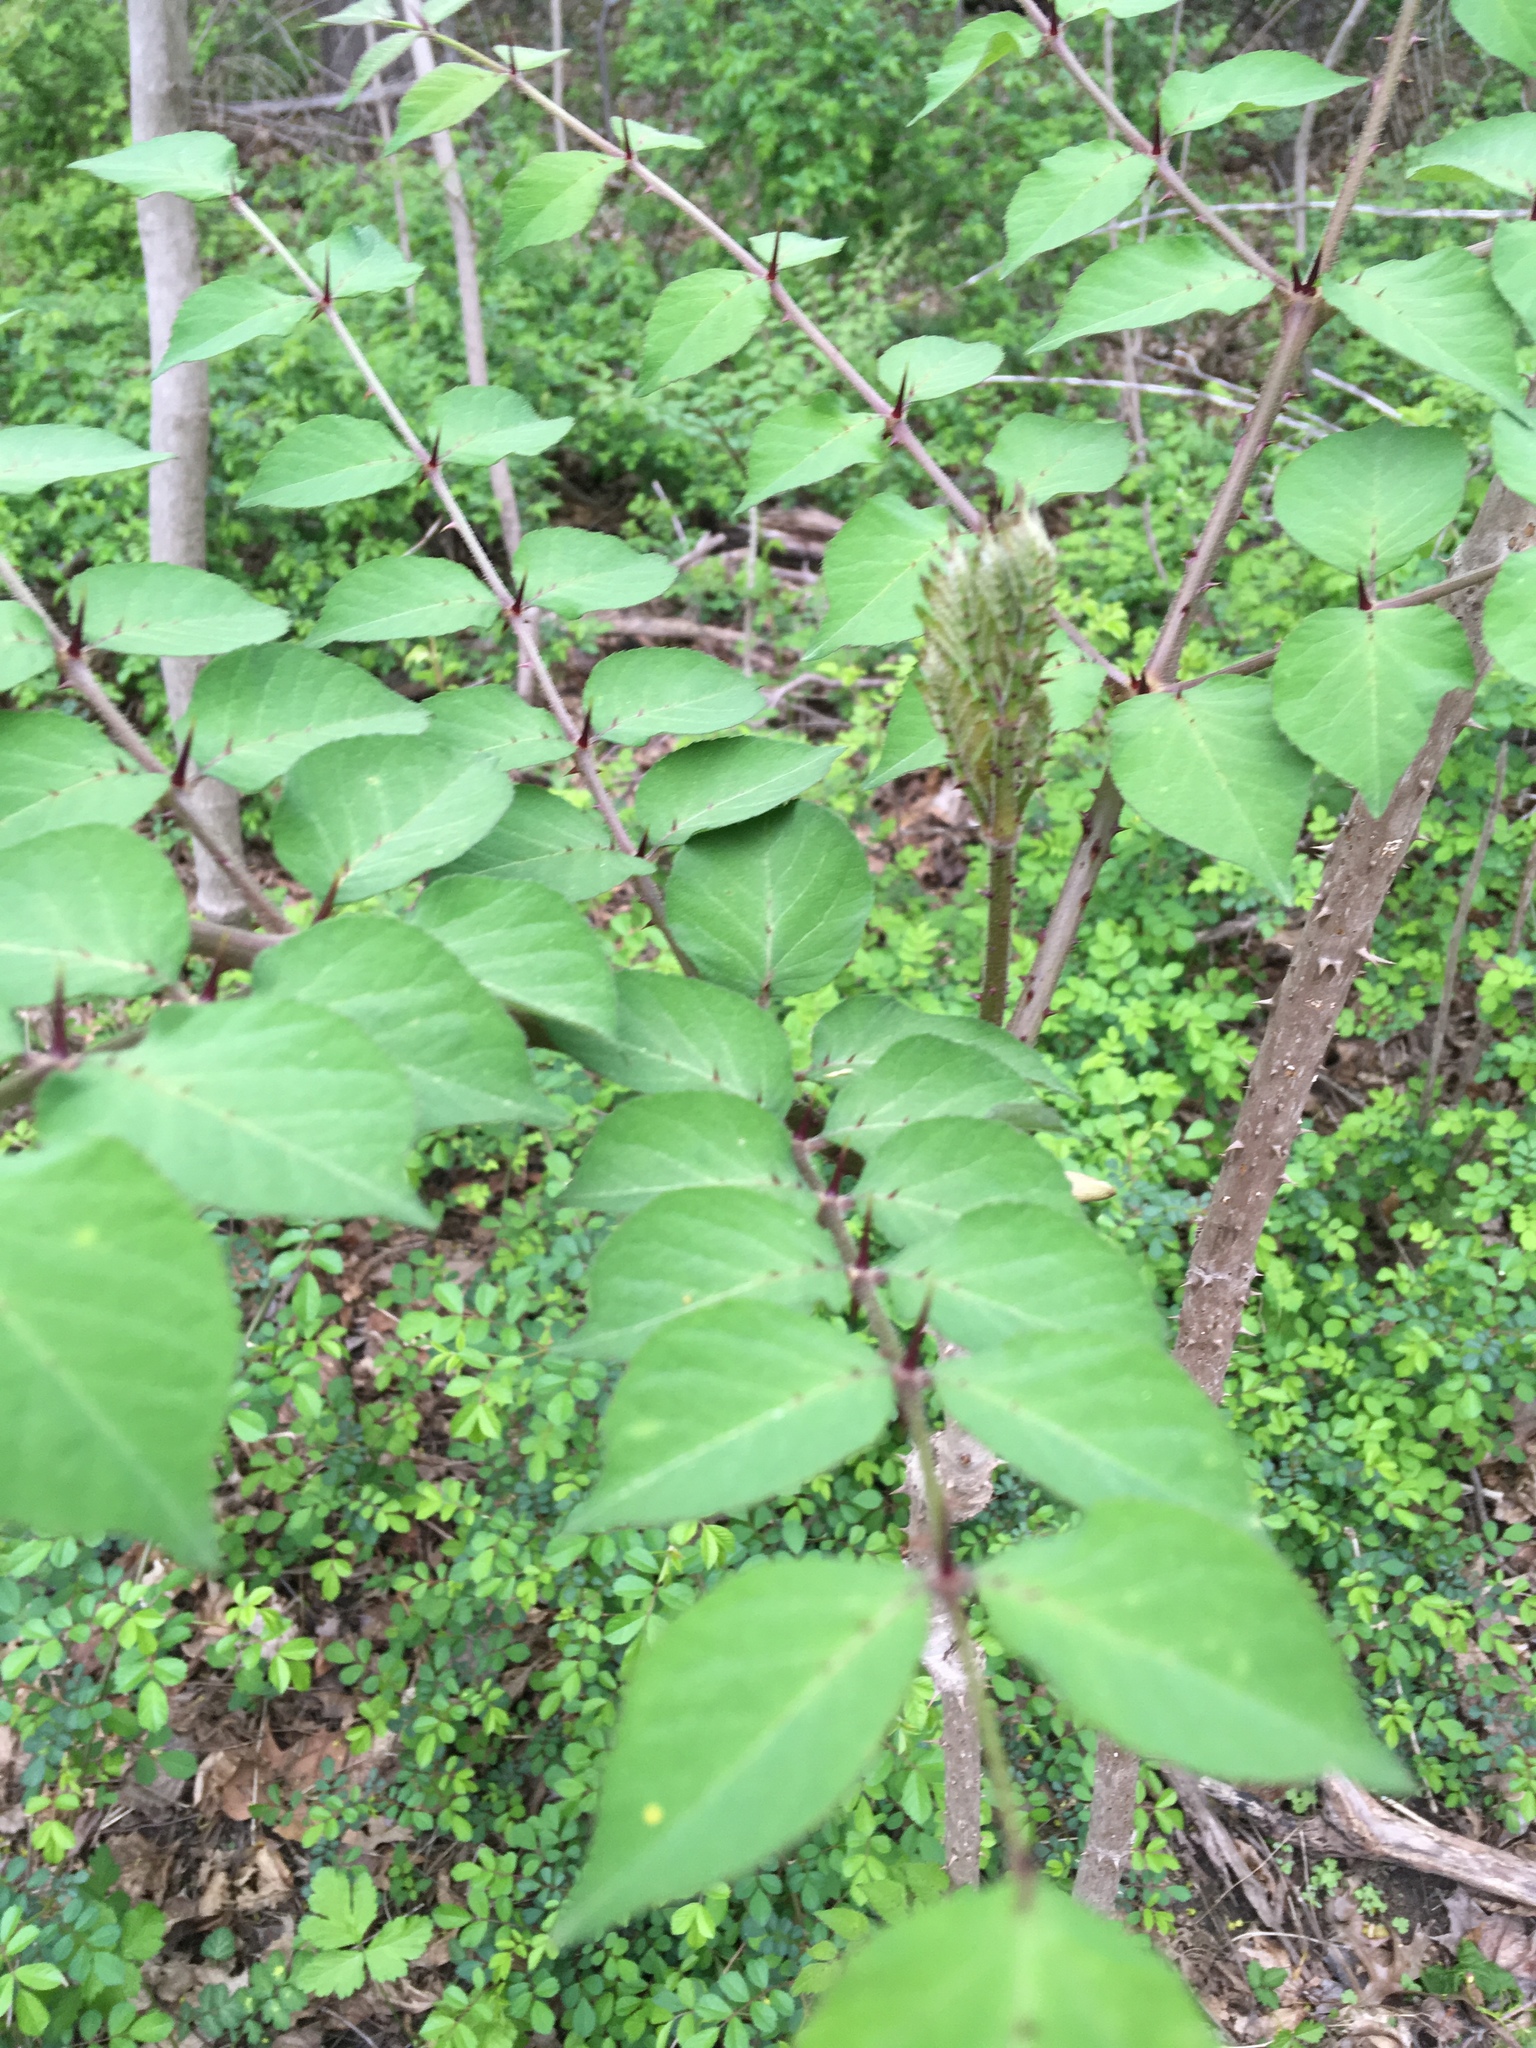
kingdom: Plantae
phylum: Tracheophyta
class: Magnoliopsida
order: Apiales
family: Araliaceae
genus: Aralia
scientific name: Aralia elata
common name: Japanese angelica-tree
